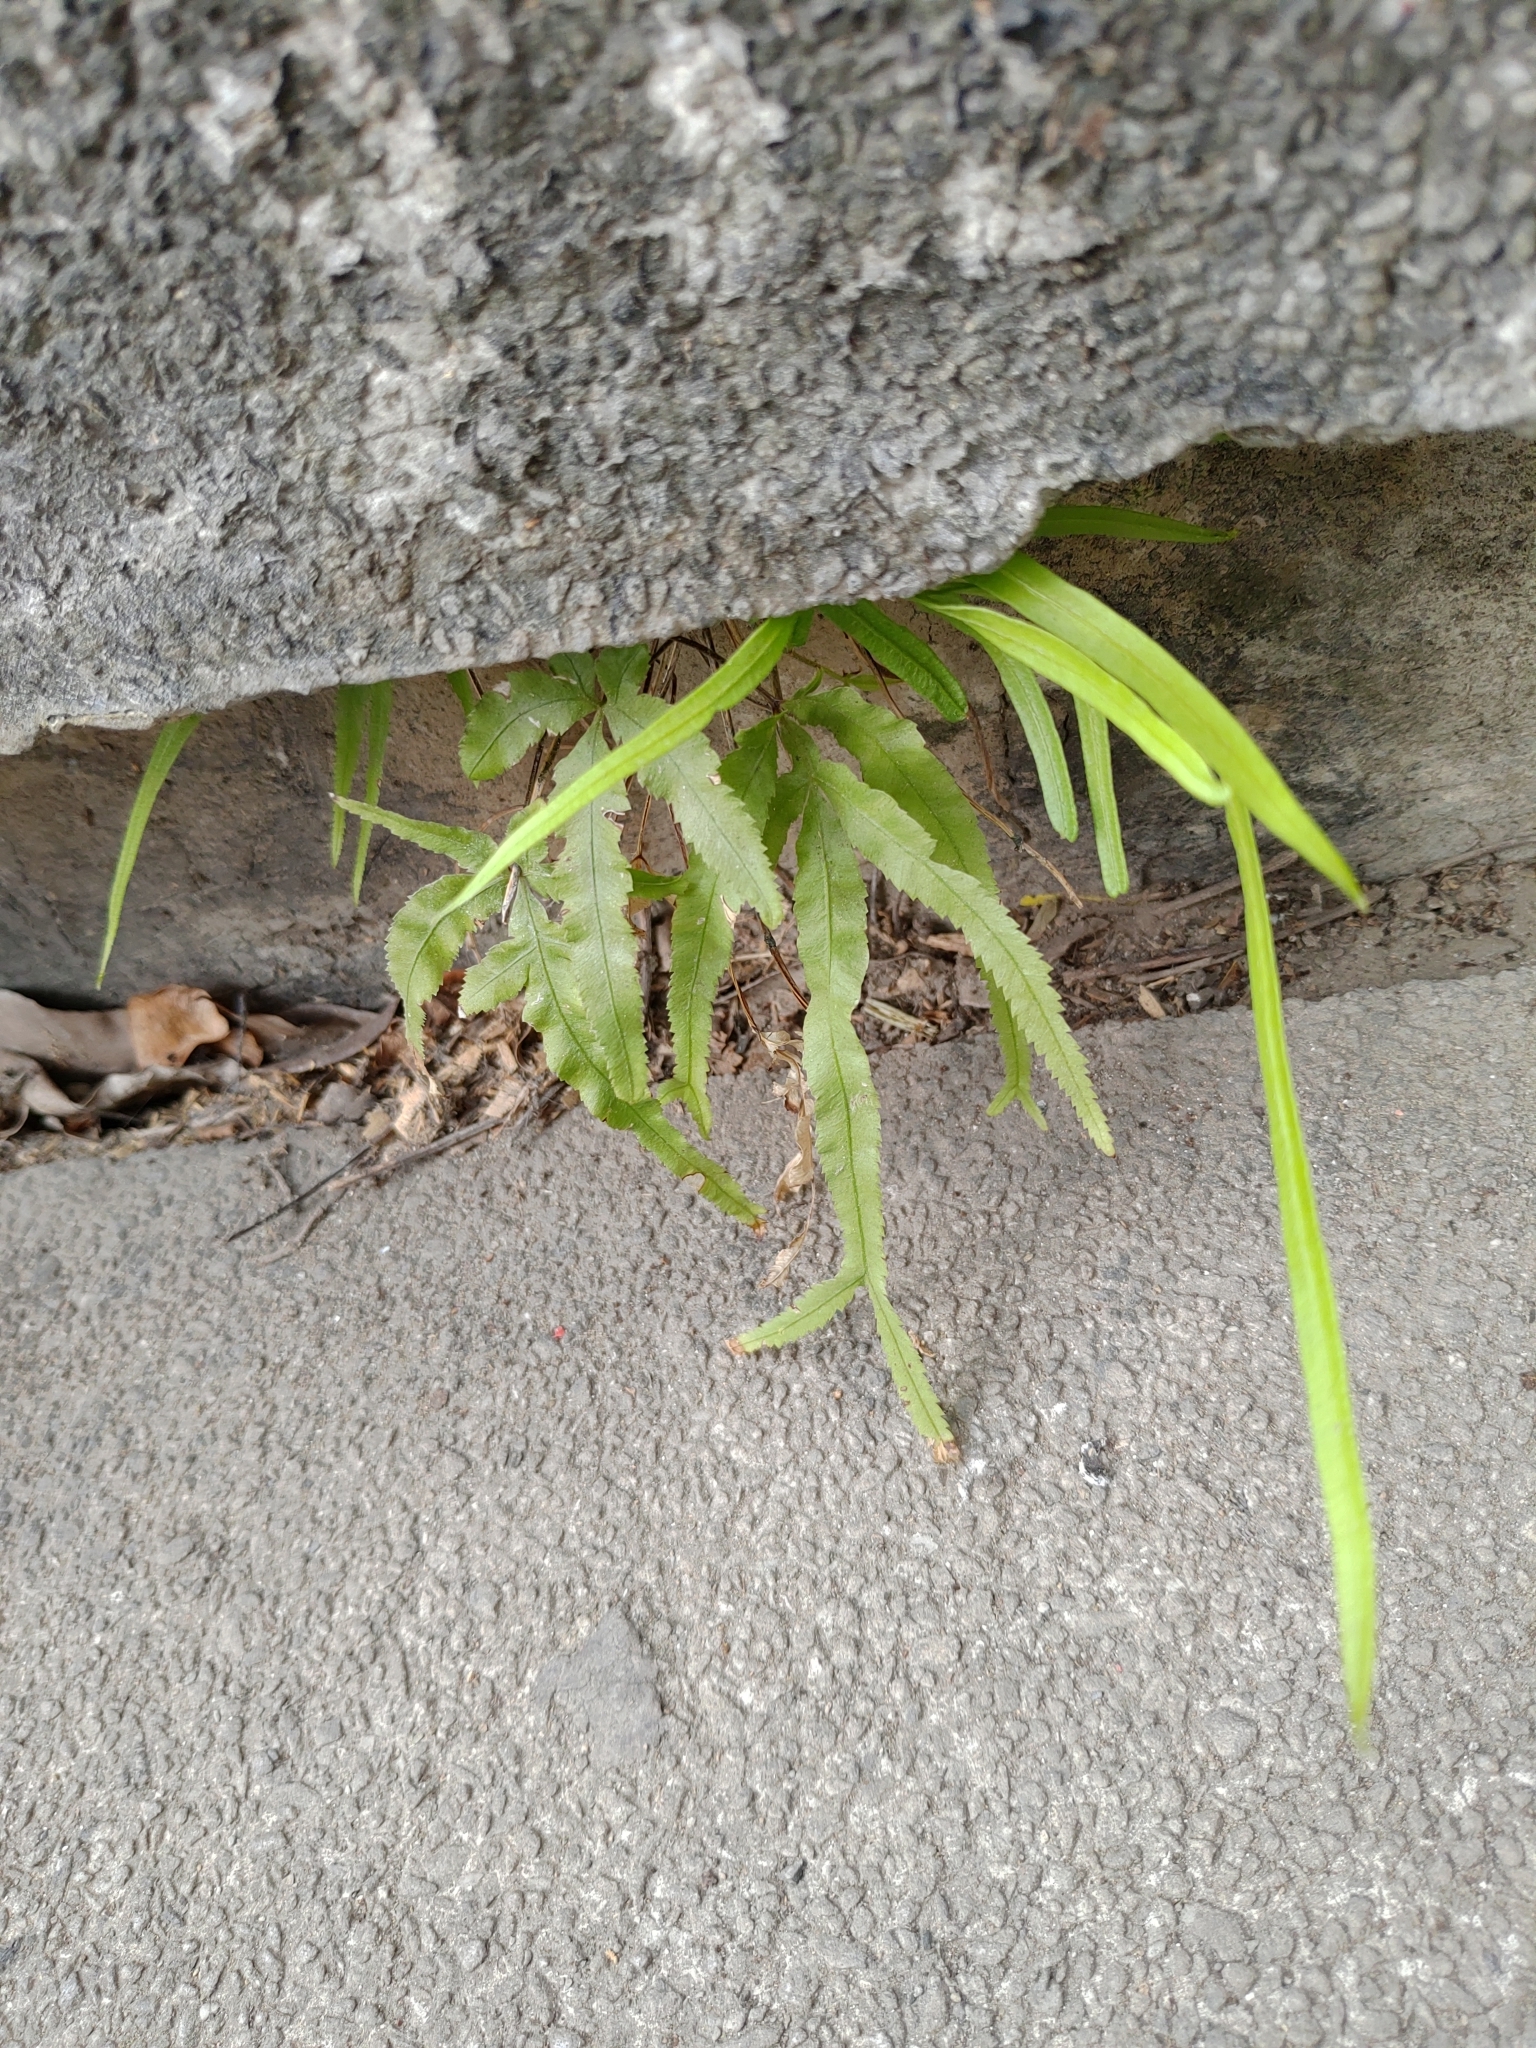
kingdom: Plantae
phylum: Tracheophyta
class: Polypodiopsida
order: Polypodiales
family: Pteridaceae
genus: Pteris
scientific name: Pteris multifida
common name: Spider brake
